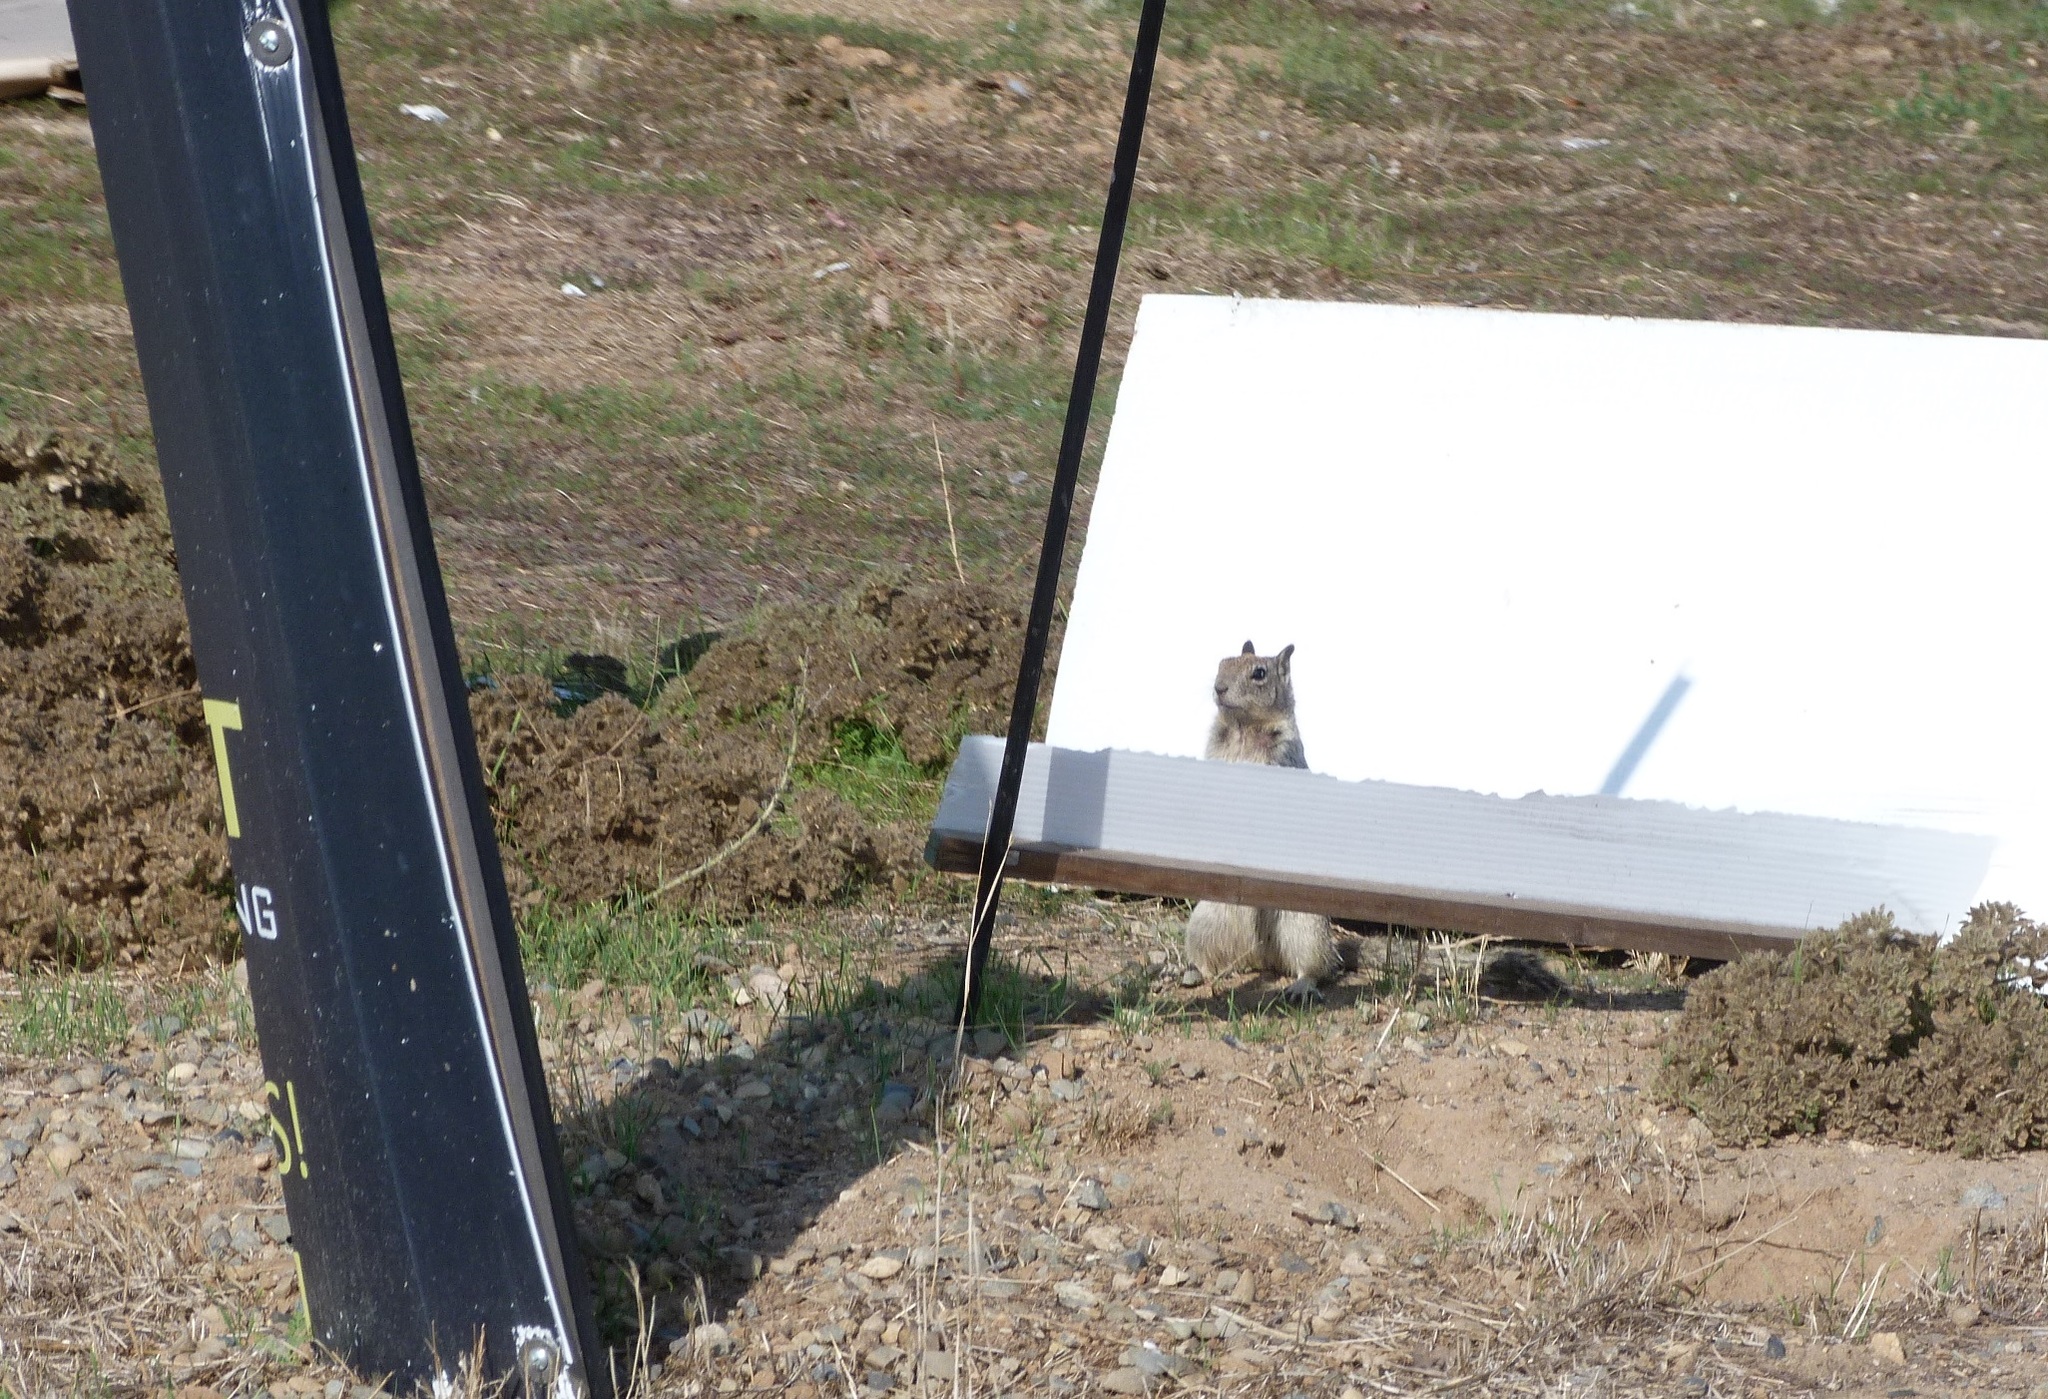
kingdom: Animalia
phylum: Chordata
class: Mammalia
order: Rodentia
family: Sciuridae
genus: Otospermophilus
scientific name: Otospermophilus beecheyi
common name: California ground squirrel
